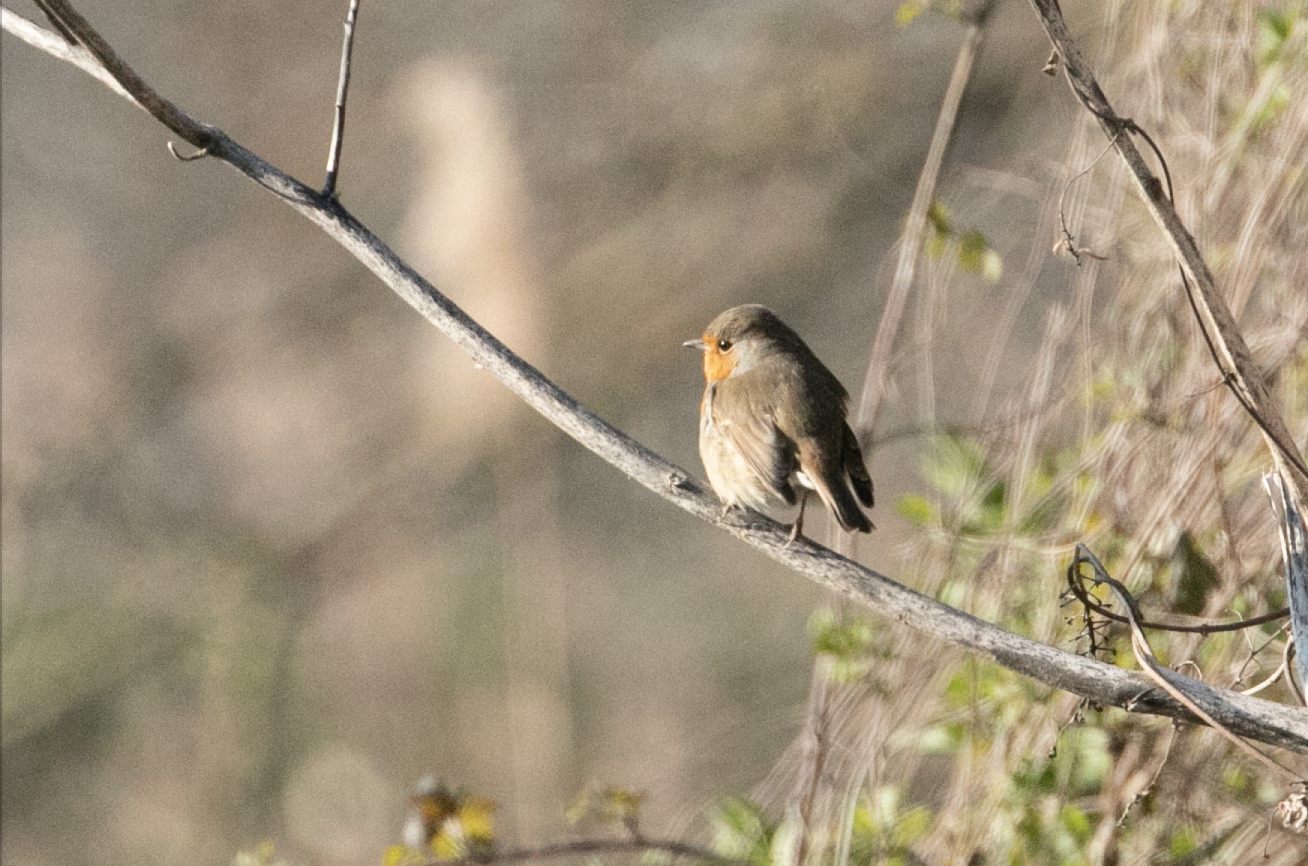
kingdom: Animalia
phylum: Chordata
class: Aves
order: Passeriformes
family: Muscicapidae
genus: Erithacus
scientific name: Erithacus rubecula
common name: European robin
